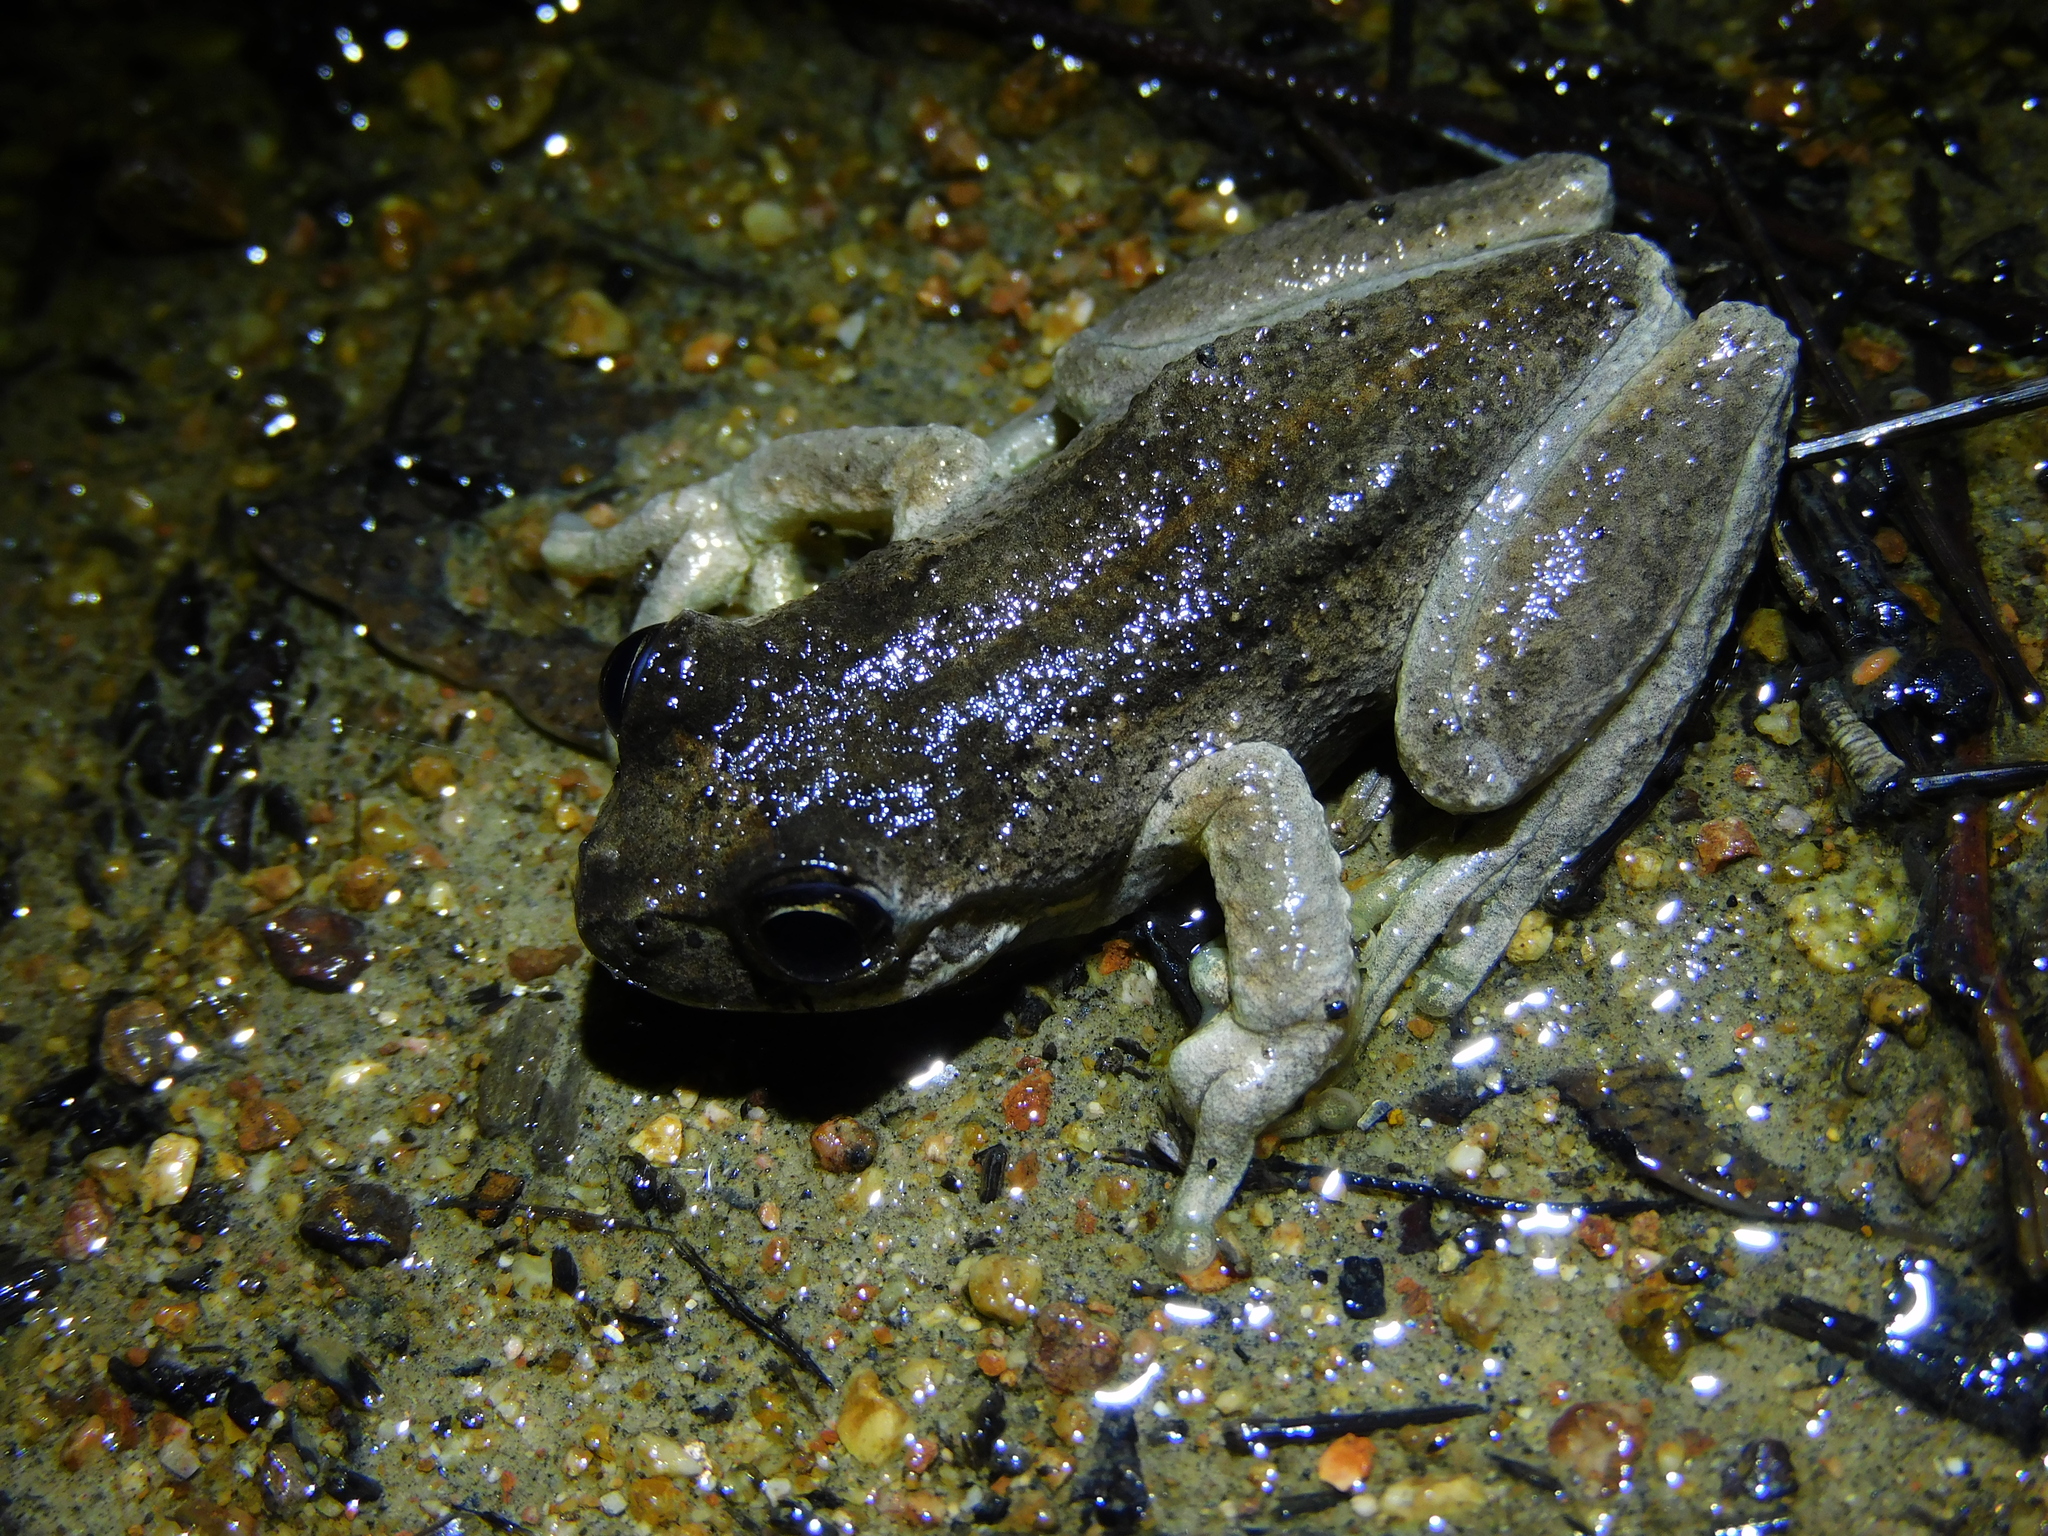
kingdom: Animalia
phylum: Chordata
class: Amphibia
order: Anura
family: Pelodryadidae
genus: Litoria
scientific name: Litoria ewingii
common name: Southern brown tree frog
